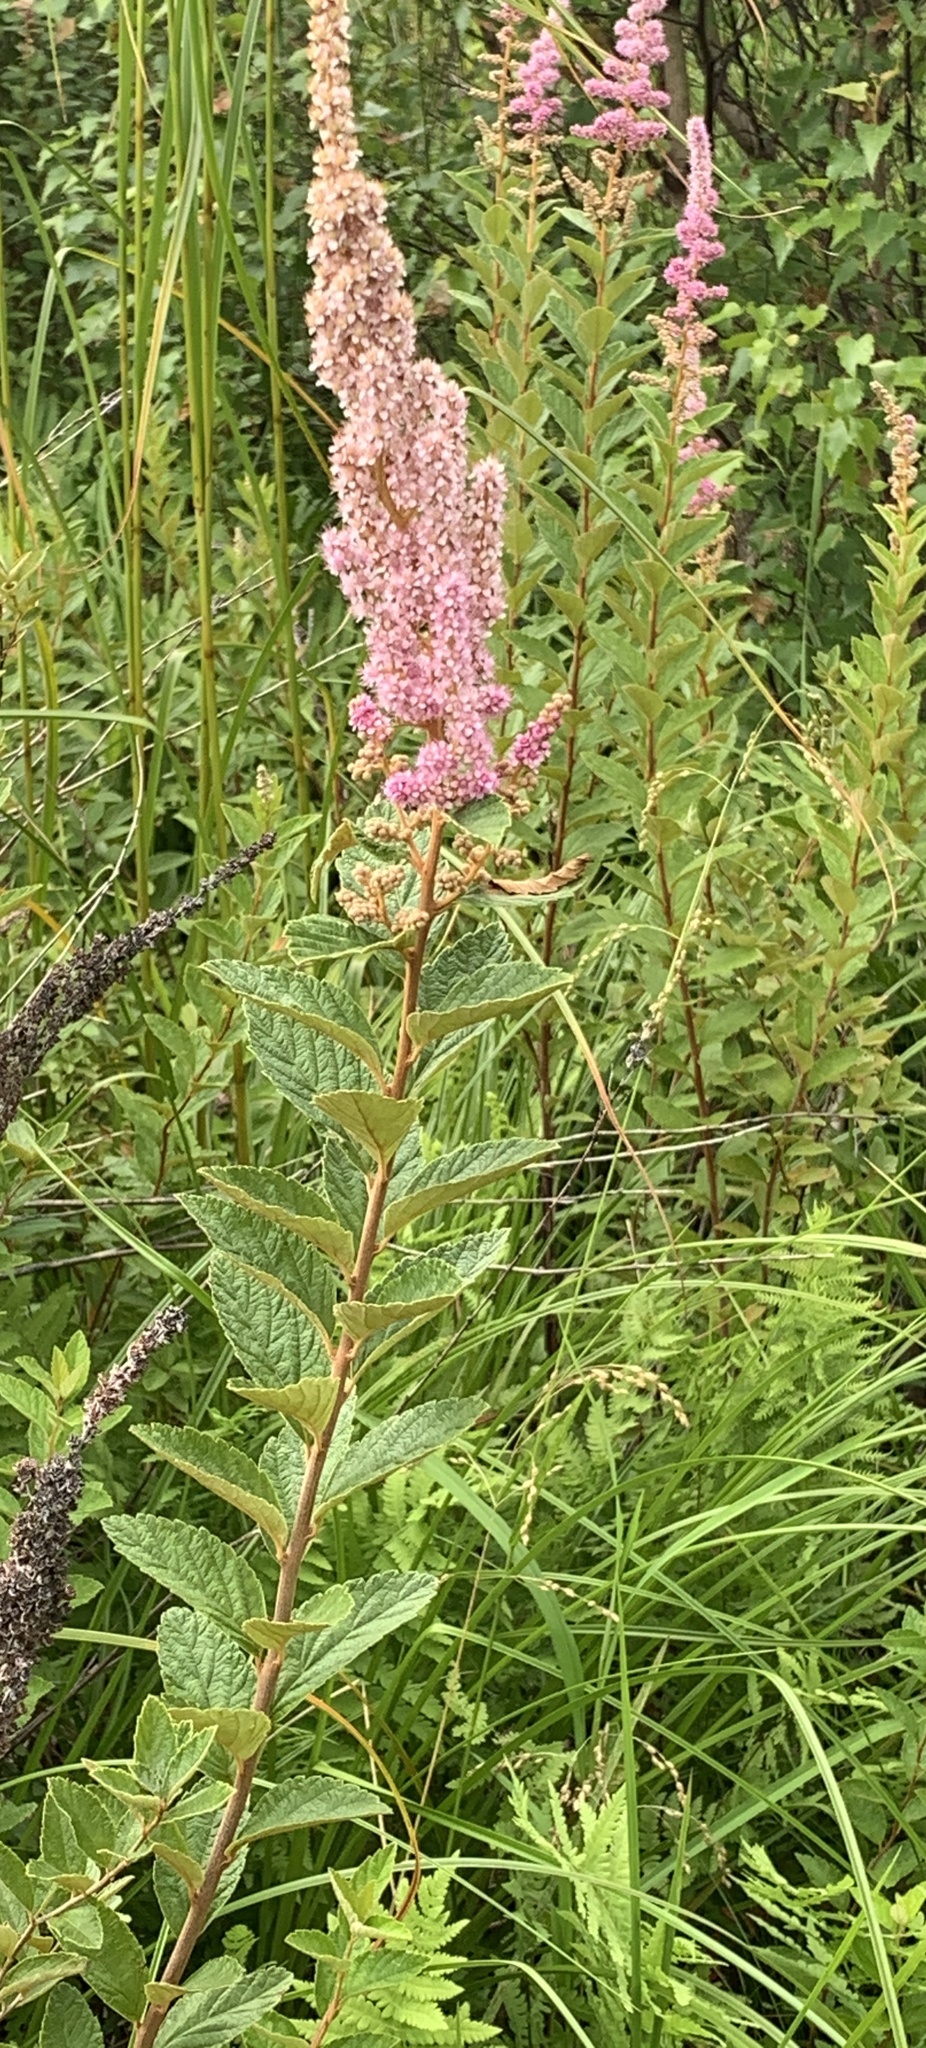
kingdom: Plantae
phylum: Tracheophyta
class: Magnoliopsida
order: Rosales
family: Rosaceae
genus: Spiraea
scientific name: Spiraea tomentosa
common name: Hardhack
